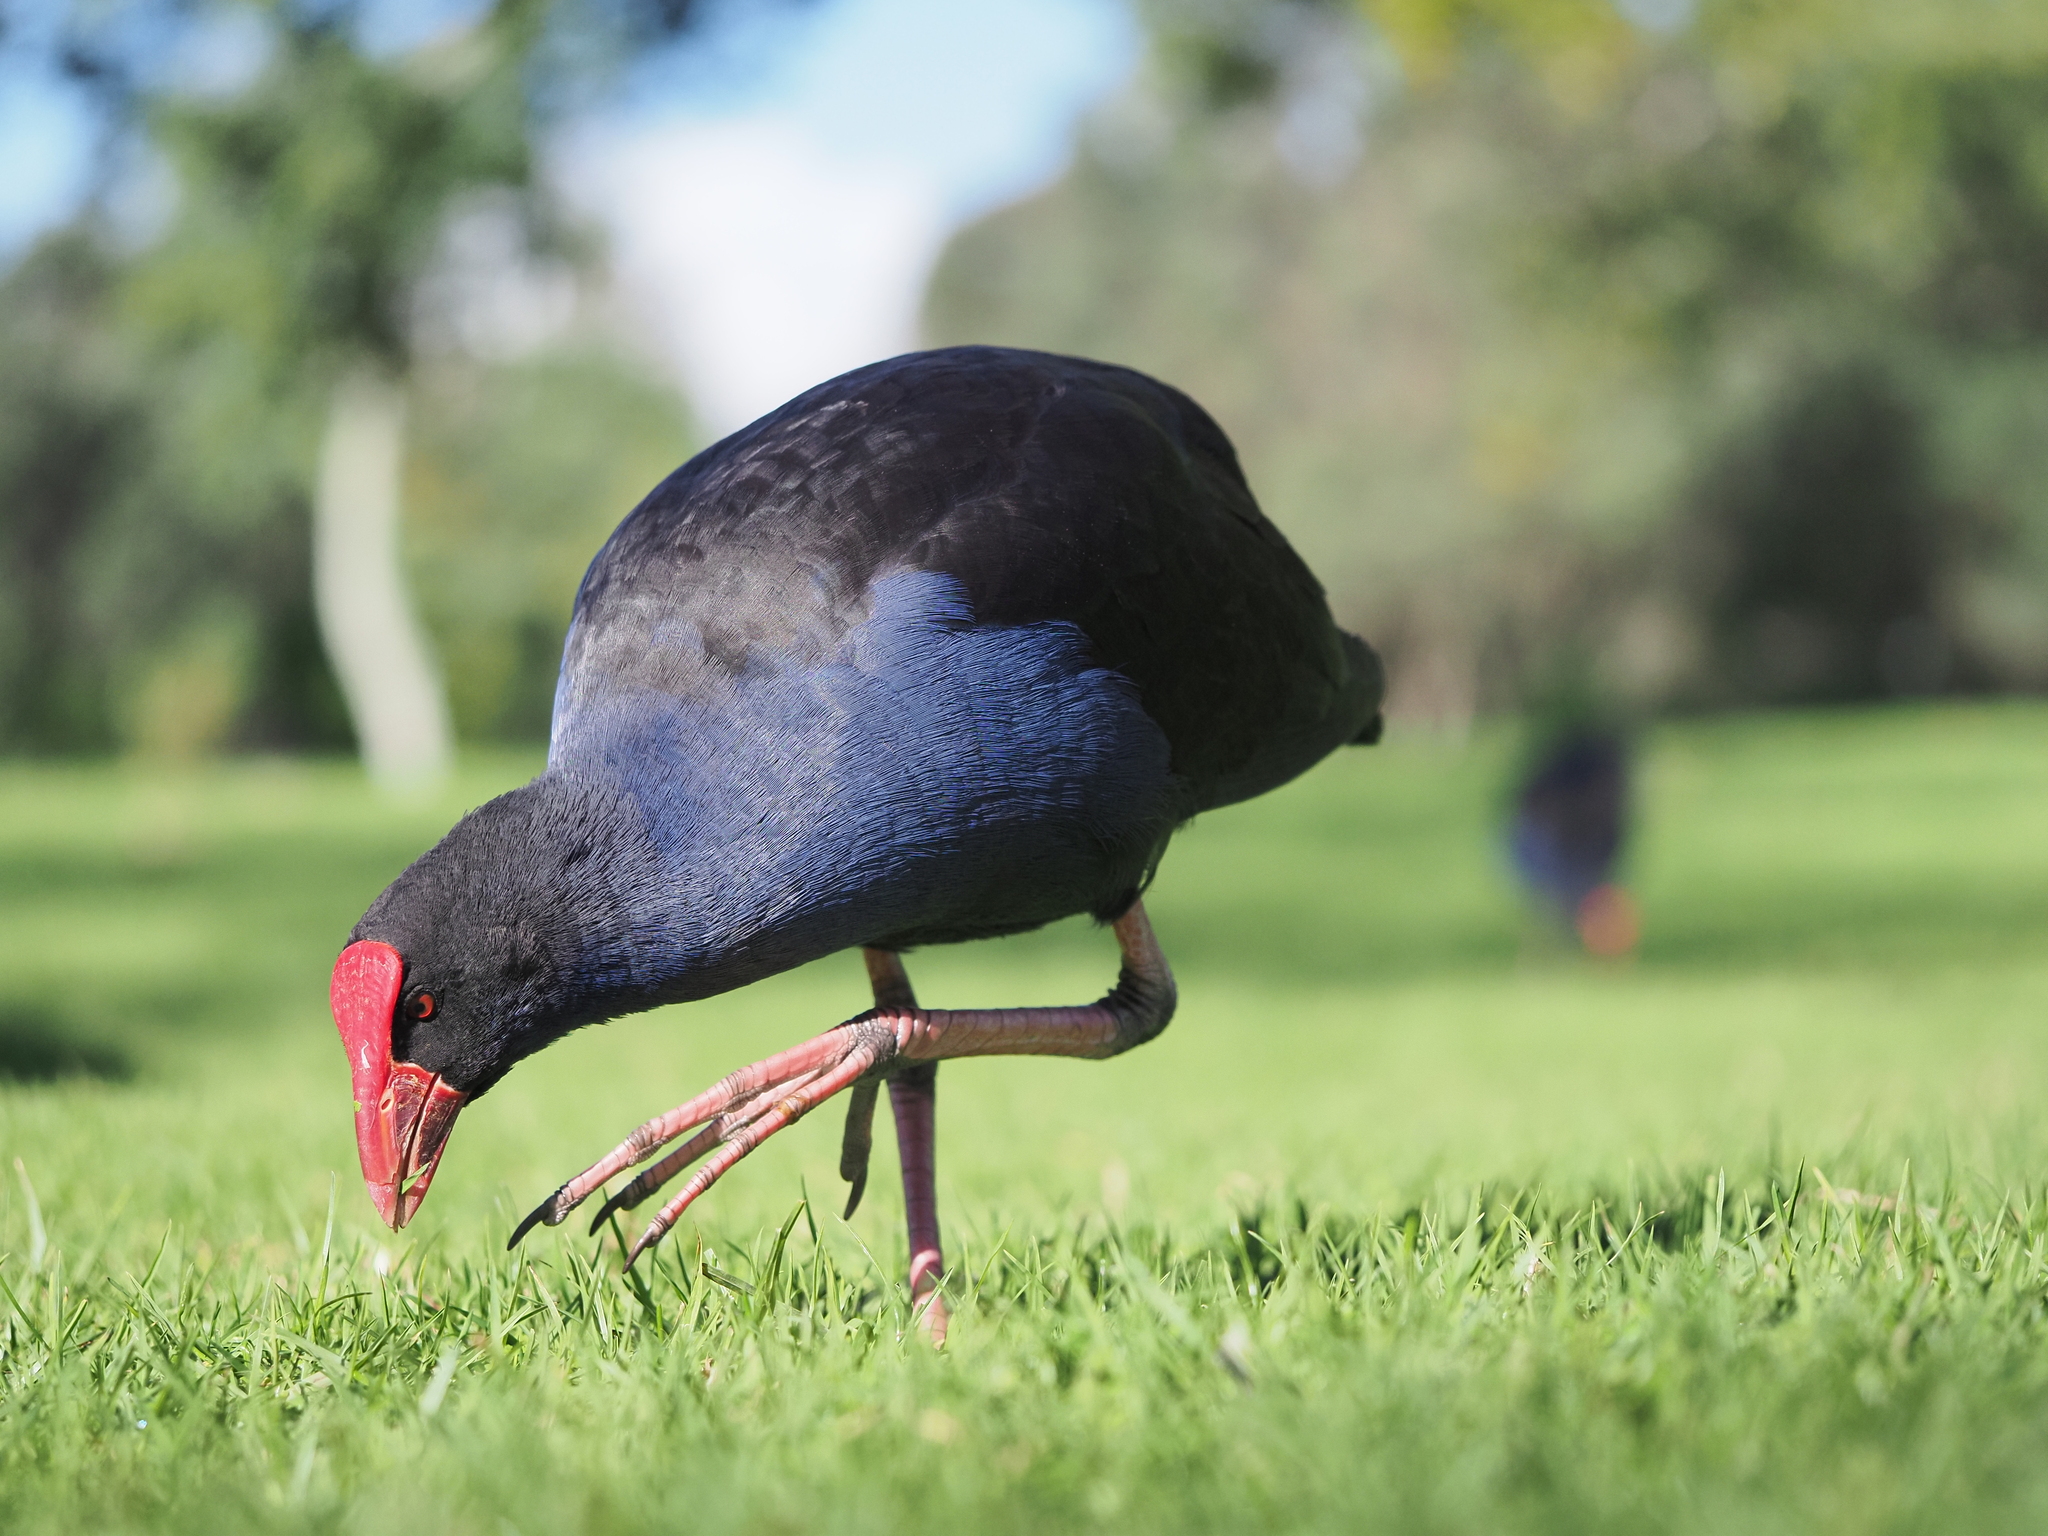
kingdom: Animalia
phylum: Chordata
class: Aves
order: Gruiformes
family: Rallidae
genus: Porphyrio
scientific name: Porphyrio melanotus
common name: Australasian swamphen
